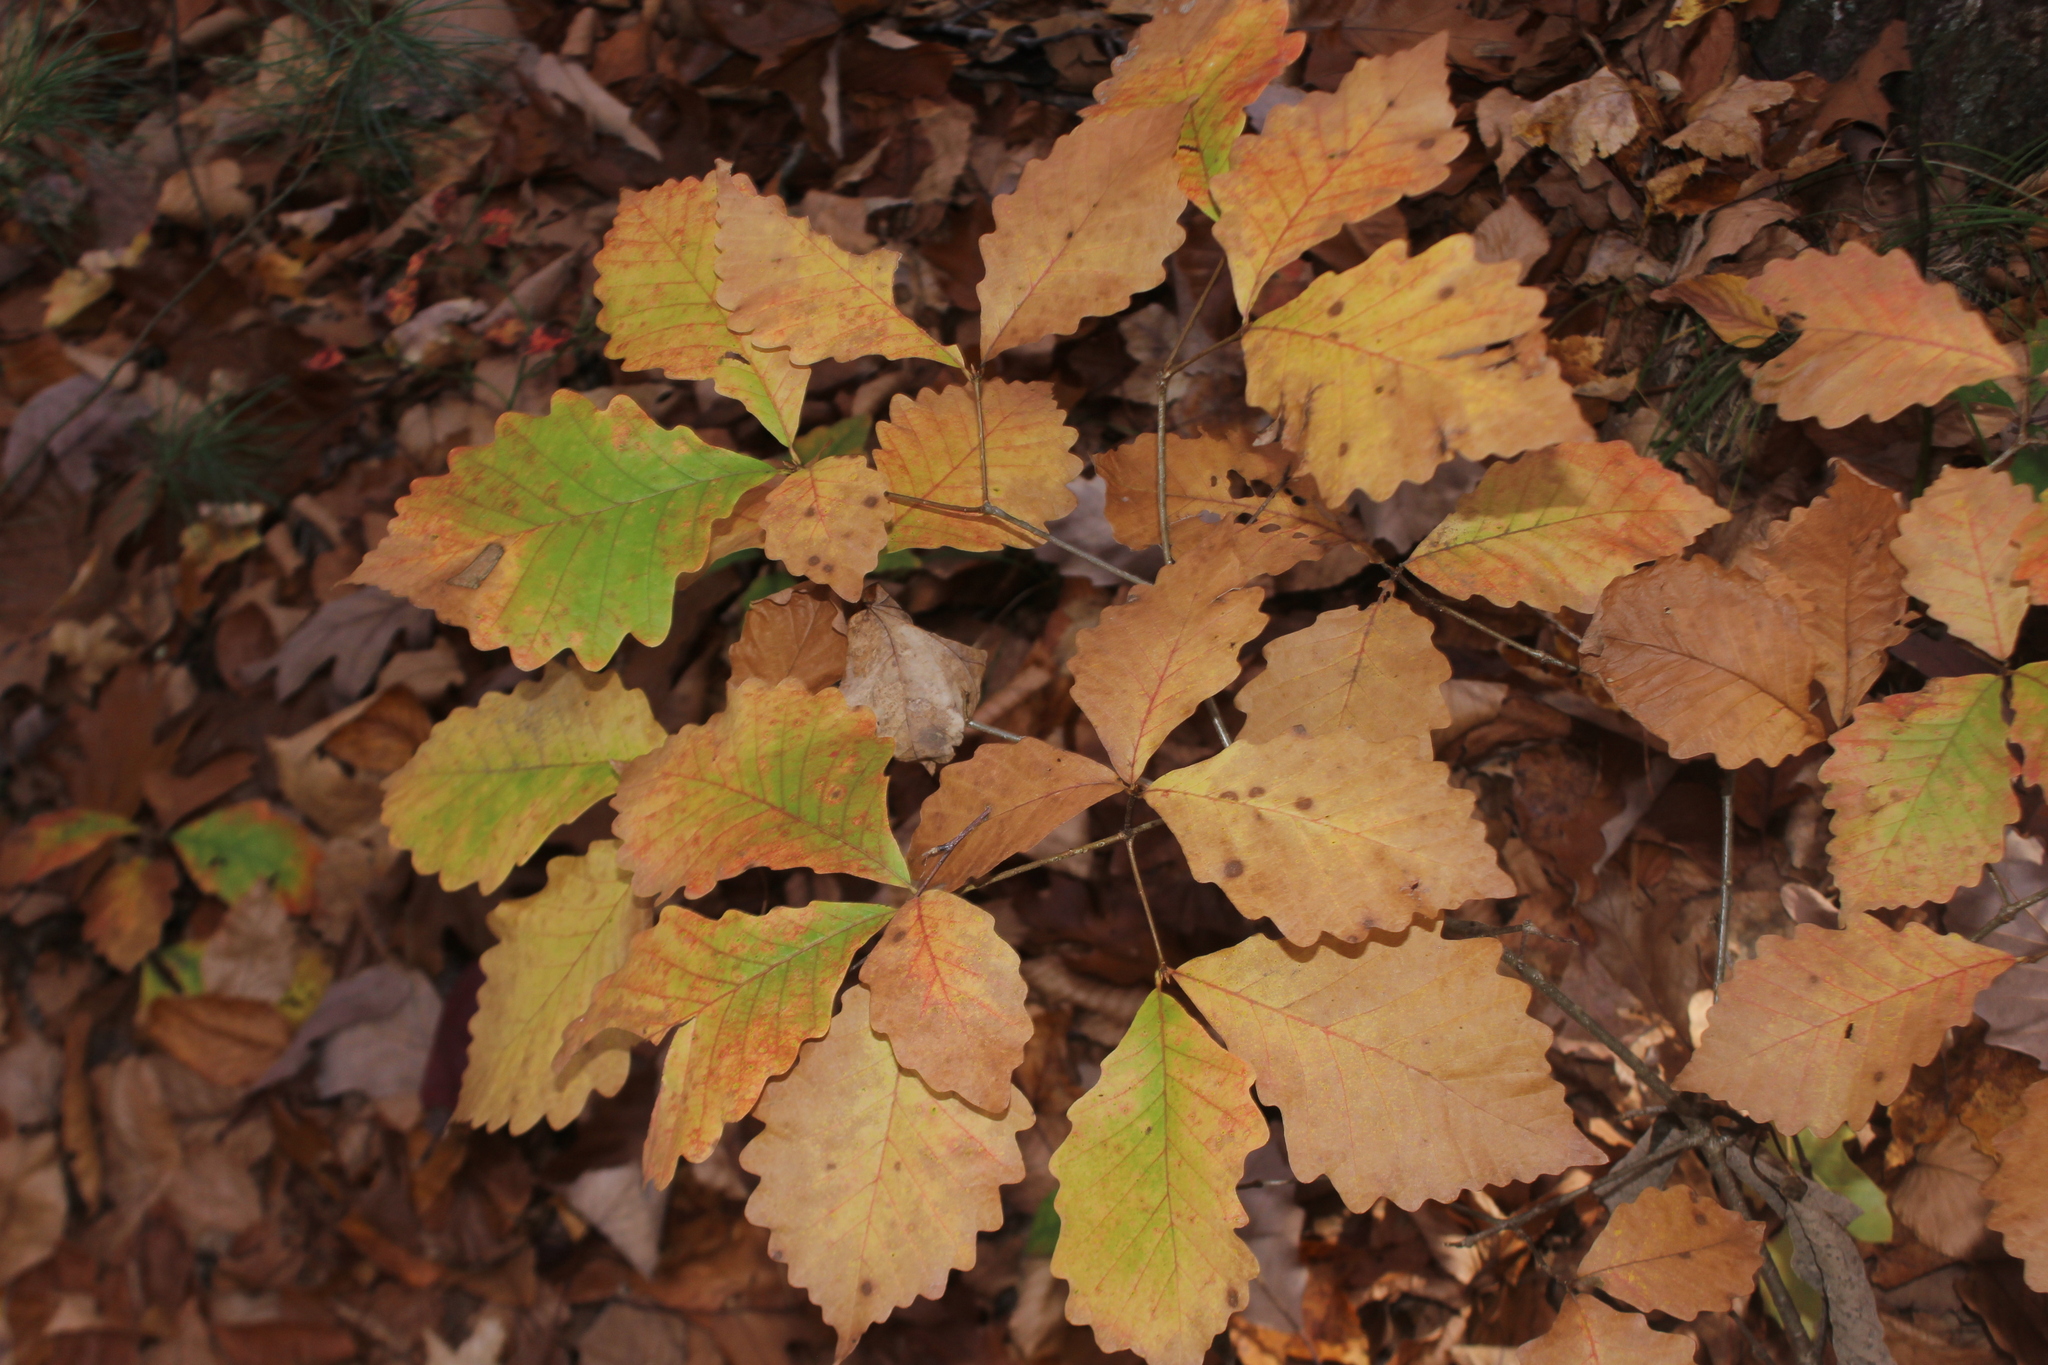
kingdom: Plantae
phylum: Tracheophyta
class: Magnoliopsida
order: Fagales
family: Fagaceae
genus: Quercus
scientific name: Quercus montana
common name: Chestnut oak
